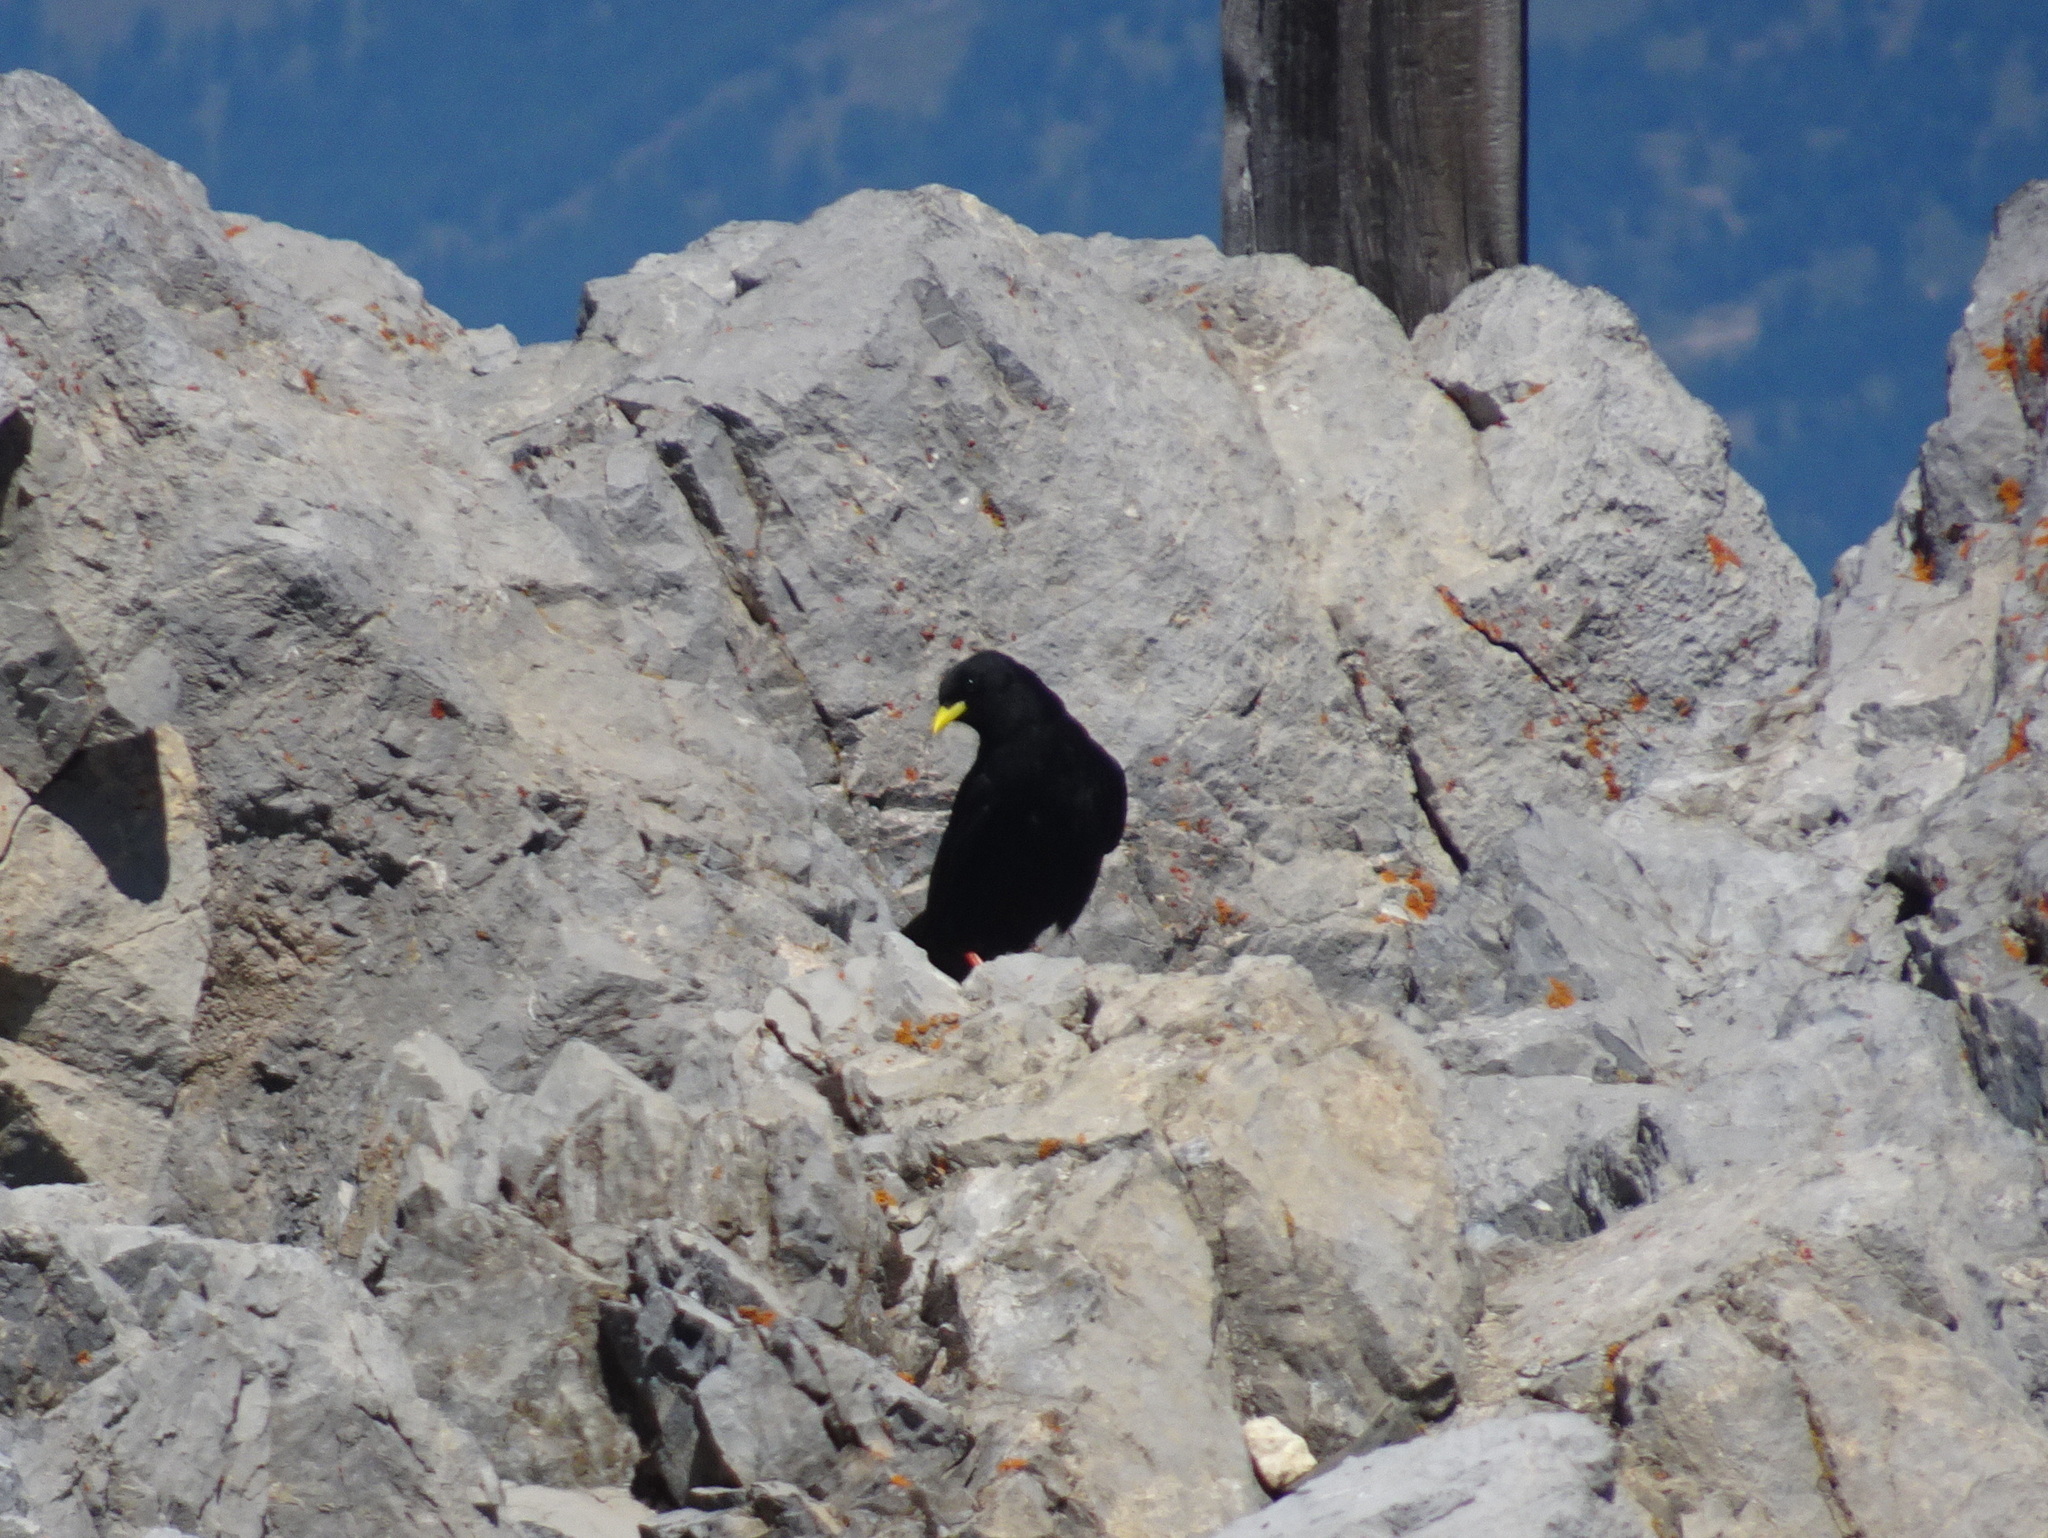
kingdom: Animalia
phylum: Chordata
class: Aves
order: Passeriformes
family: Corvidae
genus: Pyrrhocorax
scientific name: Pyrrhocorax graculus
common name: Alpine chough
